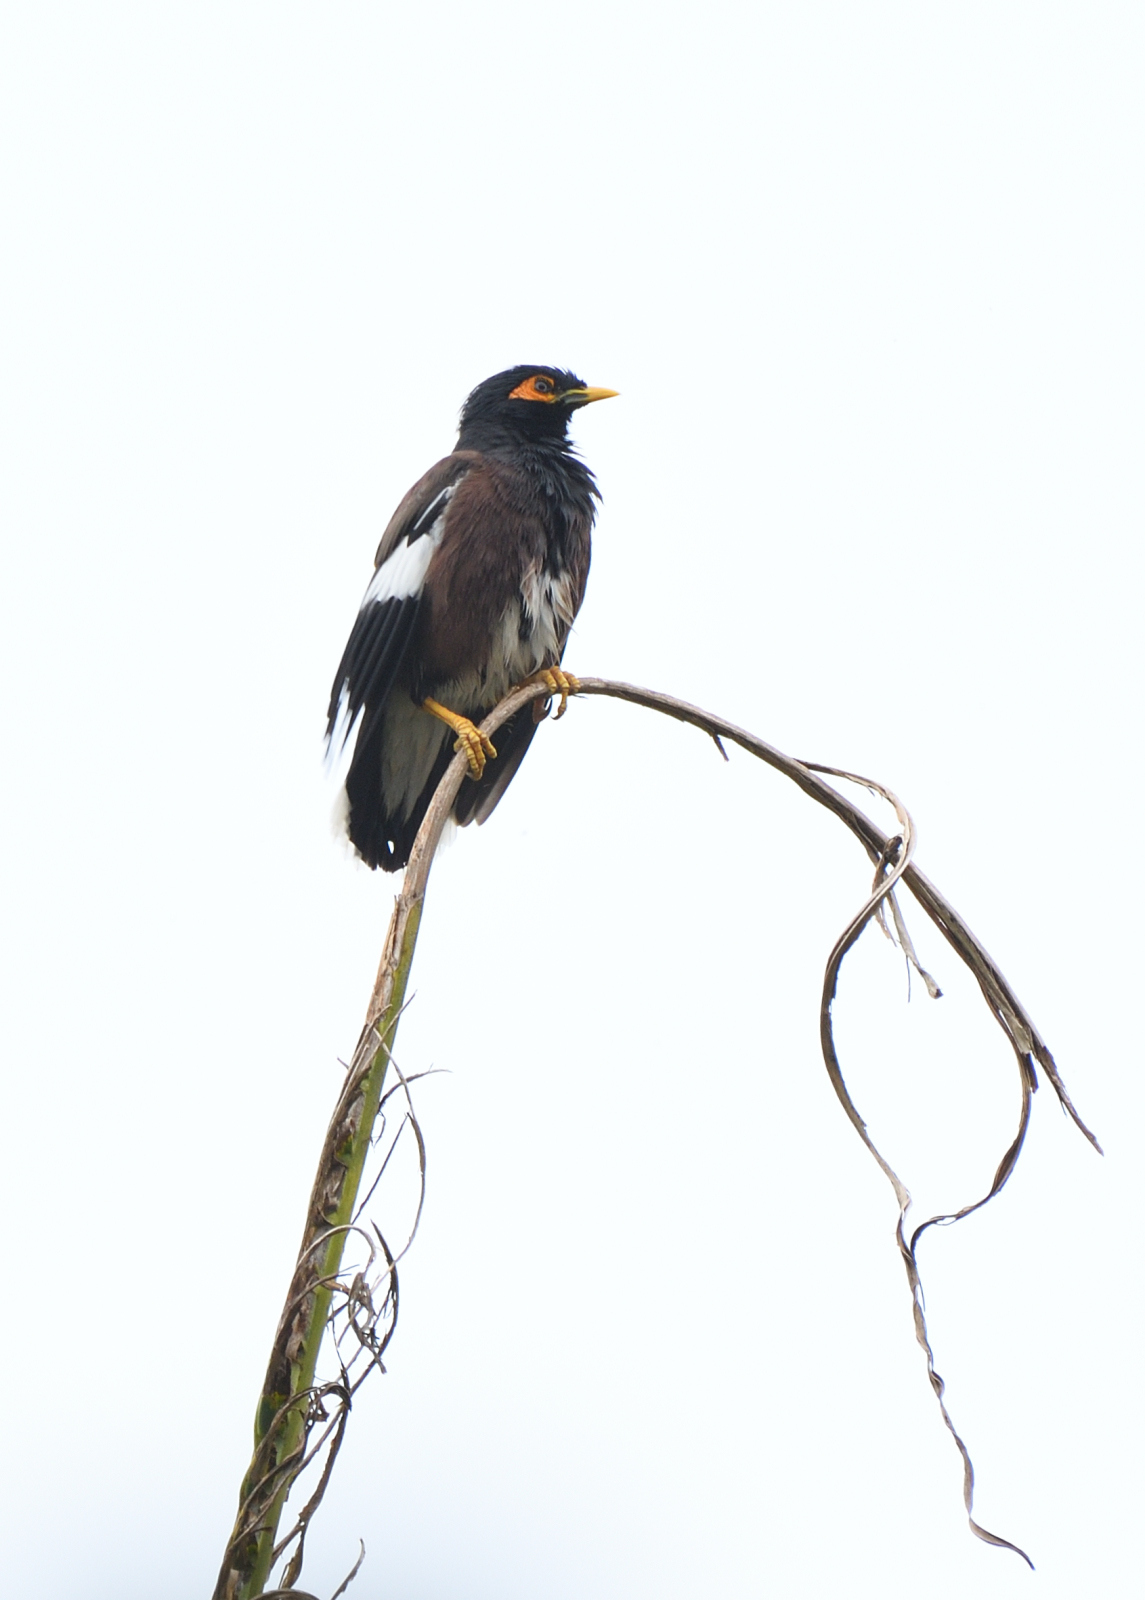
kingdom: Animalia
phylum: Chordata
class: Aves
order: Passeriformes
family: Sturnidae
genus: Acridotheres
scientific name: Acridotheres tristis
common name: Common myna
